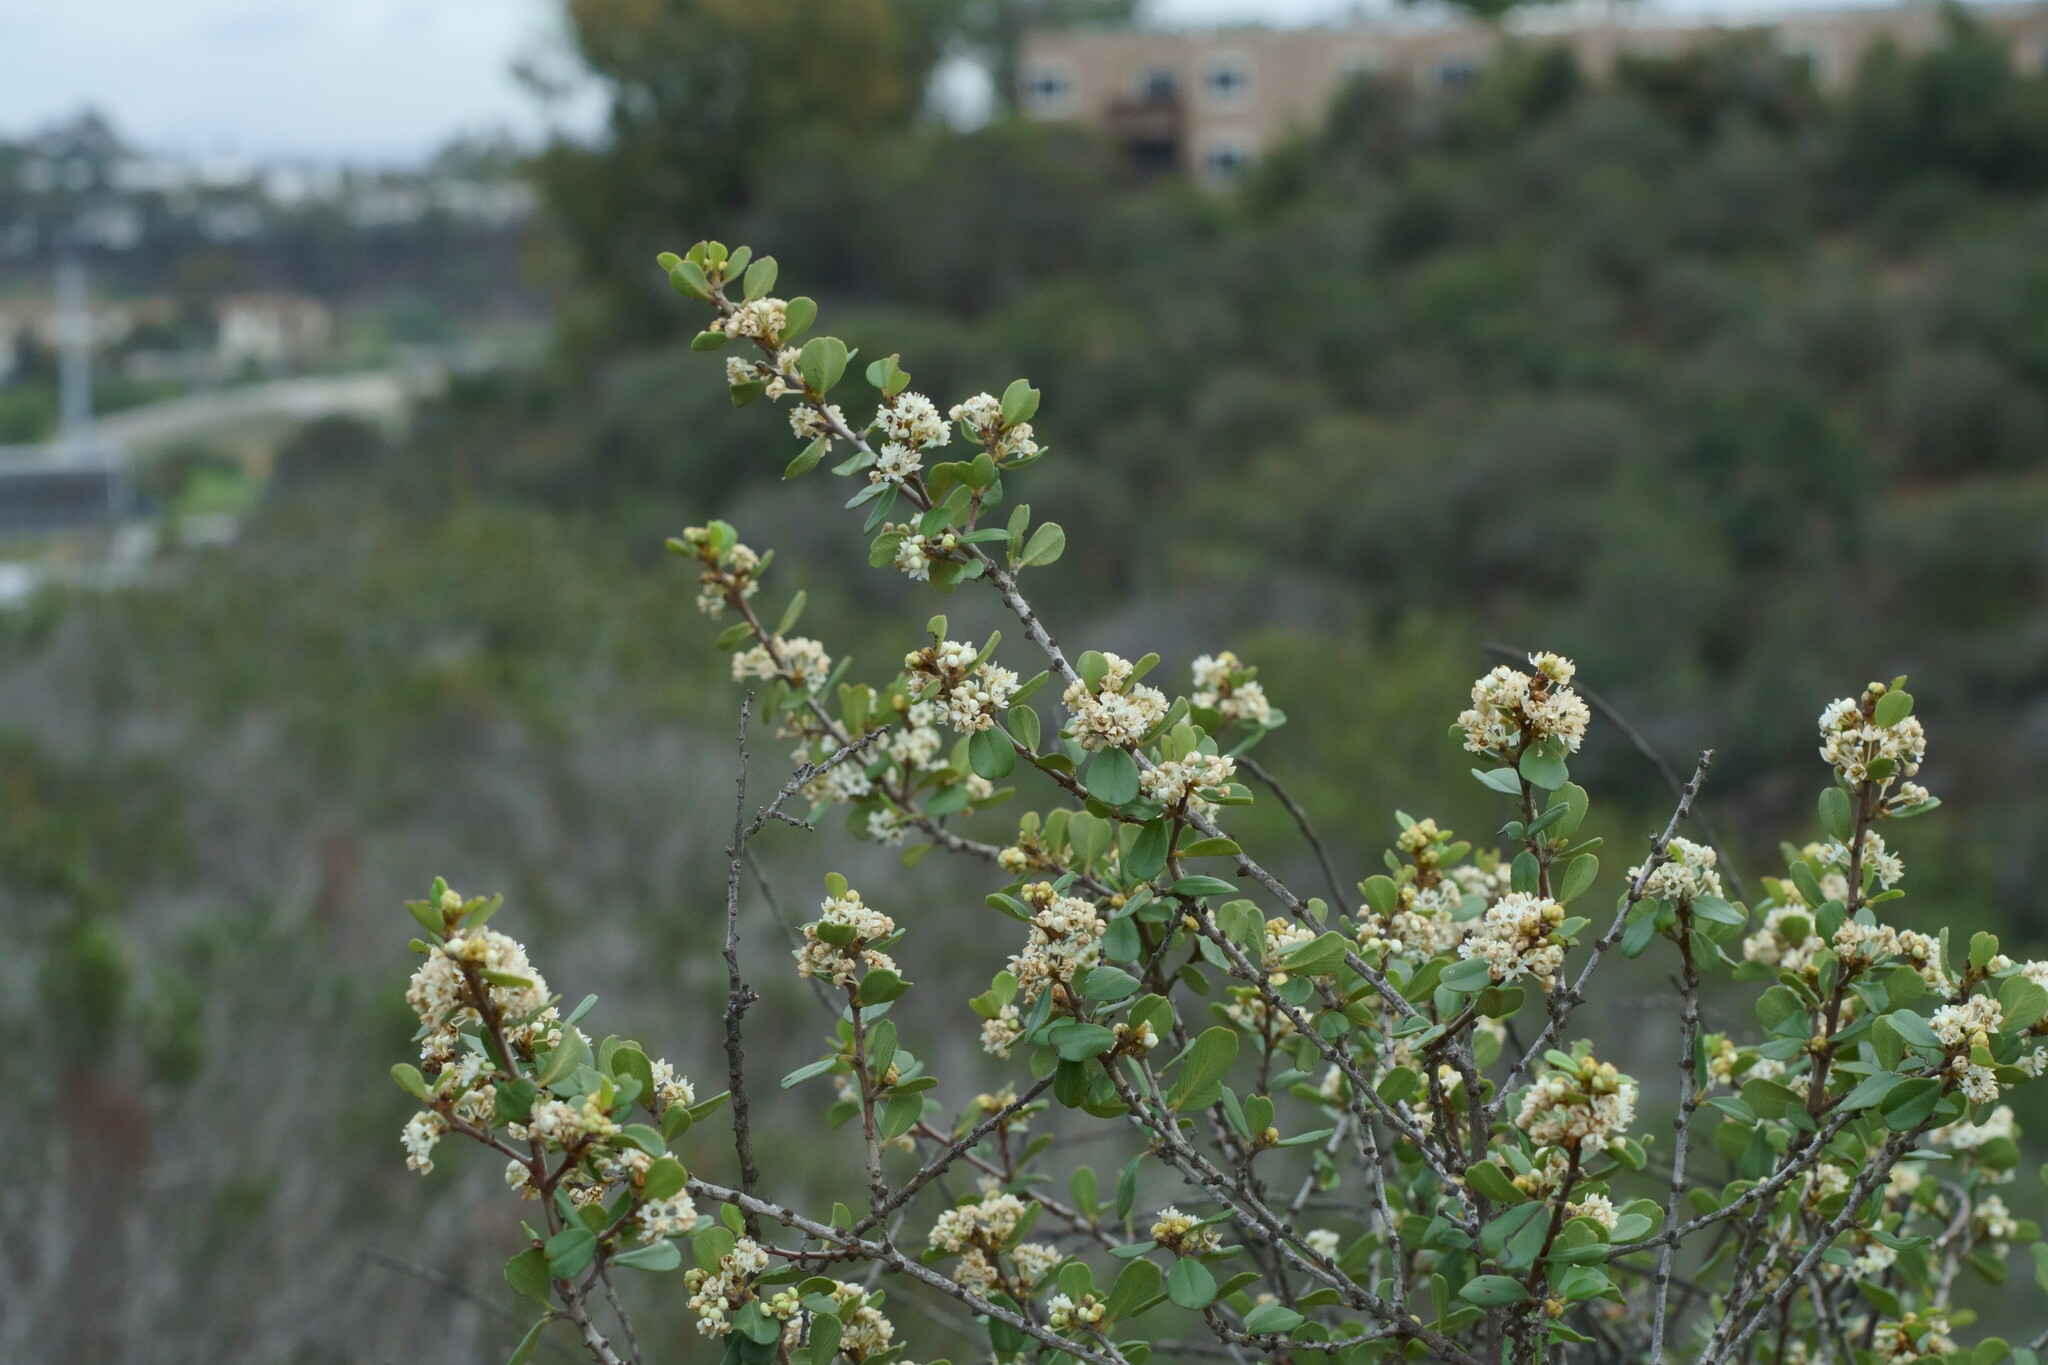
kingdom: Plantae
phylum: Tracheophyta
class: Magnoliopsida
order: Rosales
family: Rhamnaceae
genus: Ceanothus
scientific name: Ceanothus verrucosus
